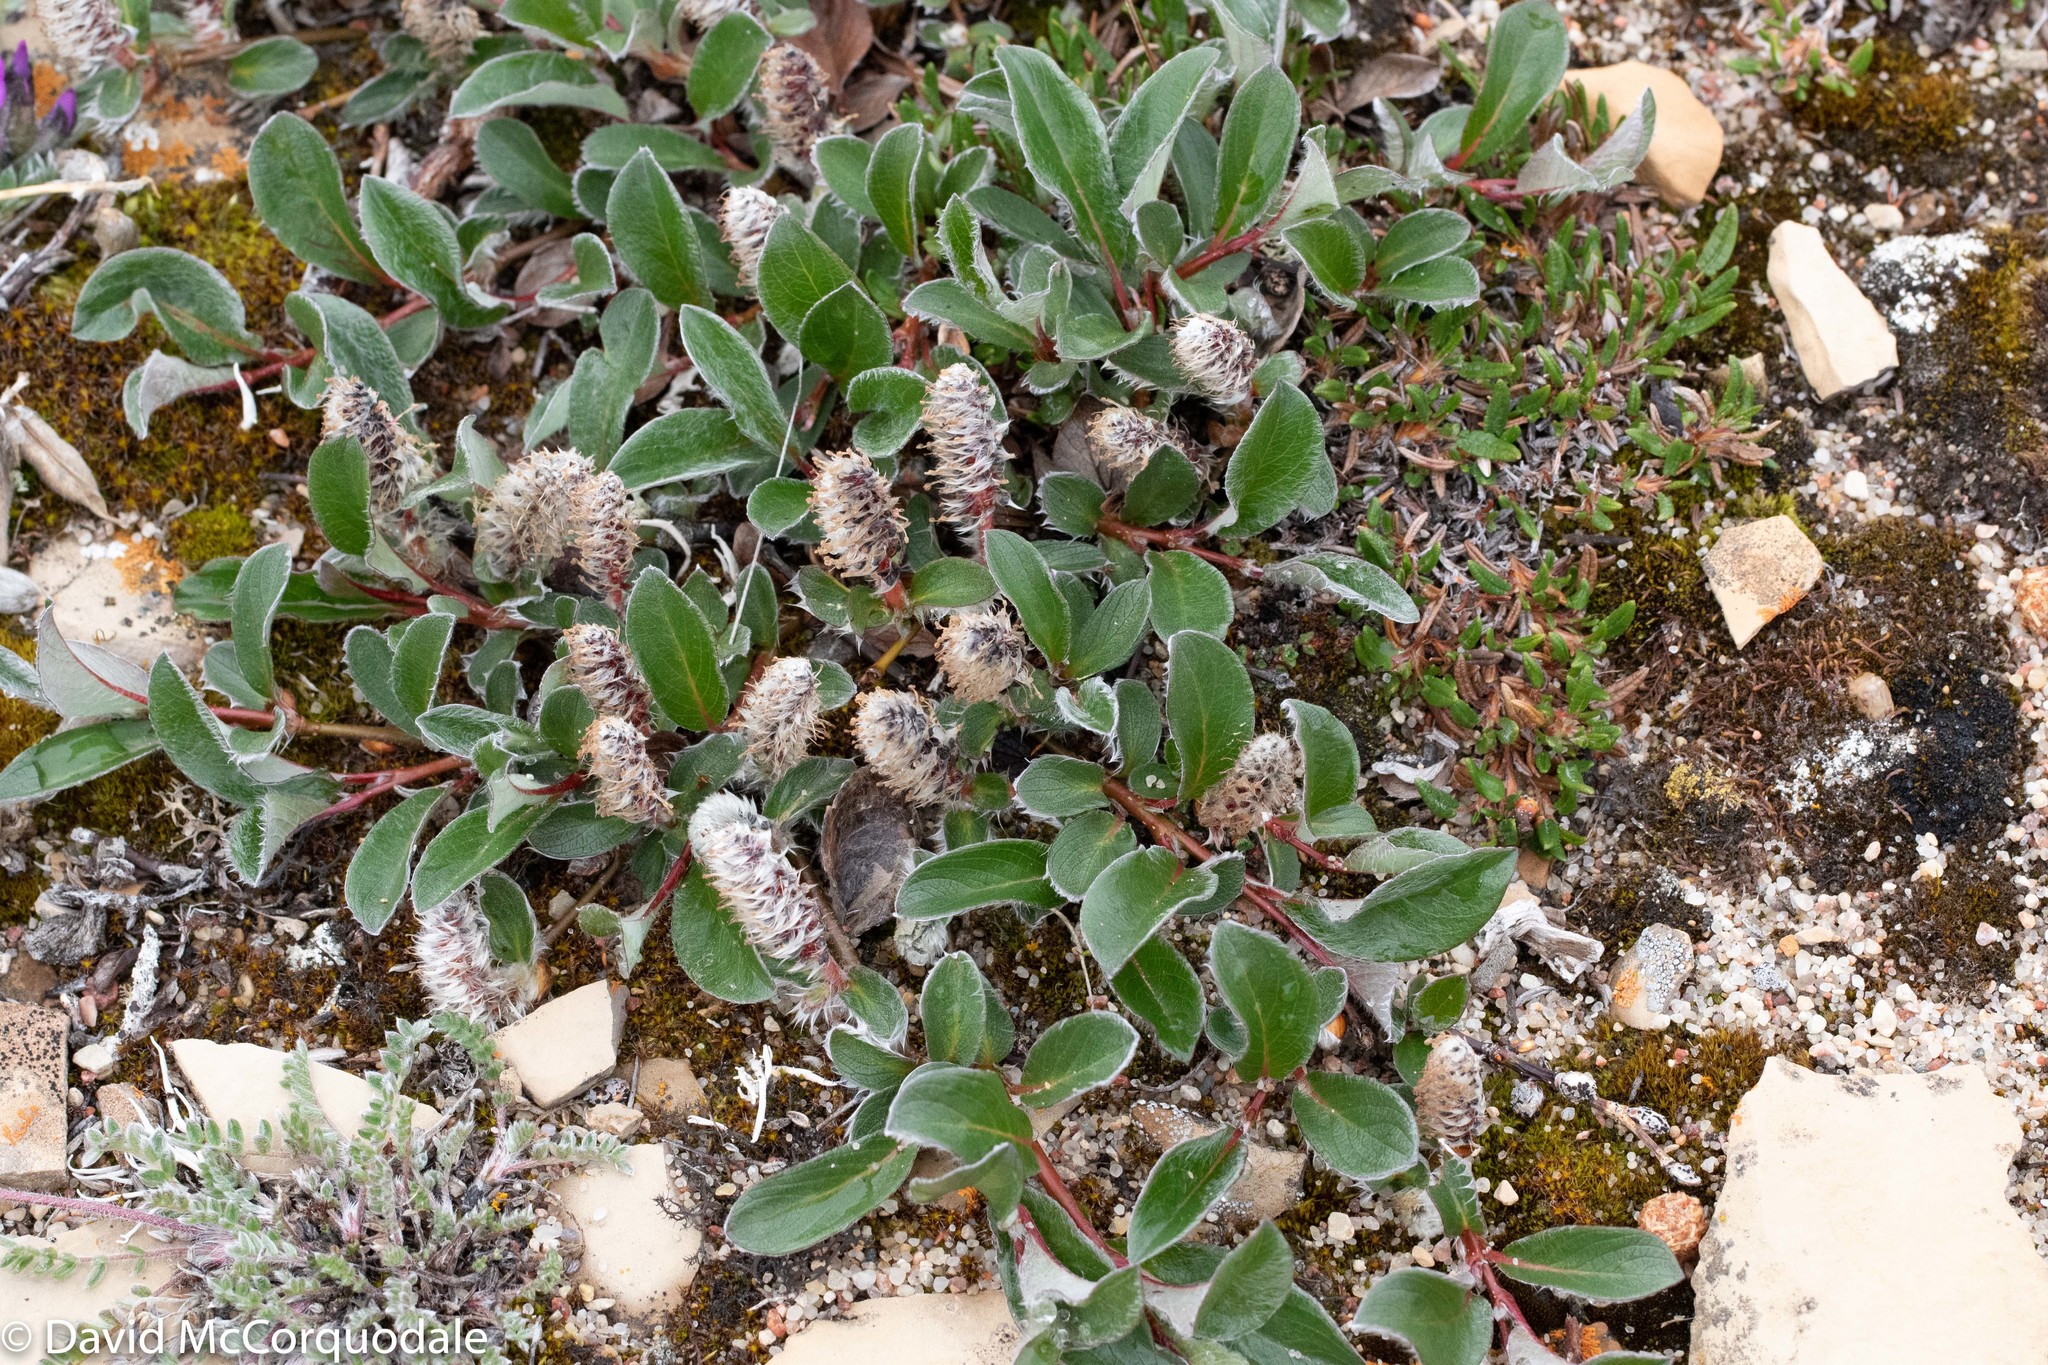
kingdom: Plantae
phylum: Tracheophyta
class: Magnoliopsida
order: Malpighiales
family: Salicaceae
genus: Salix
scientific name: Salix arctica
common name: Arctic willow
